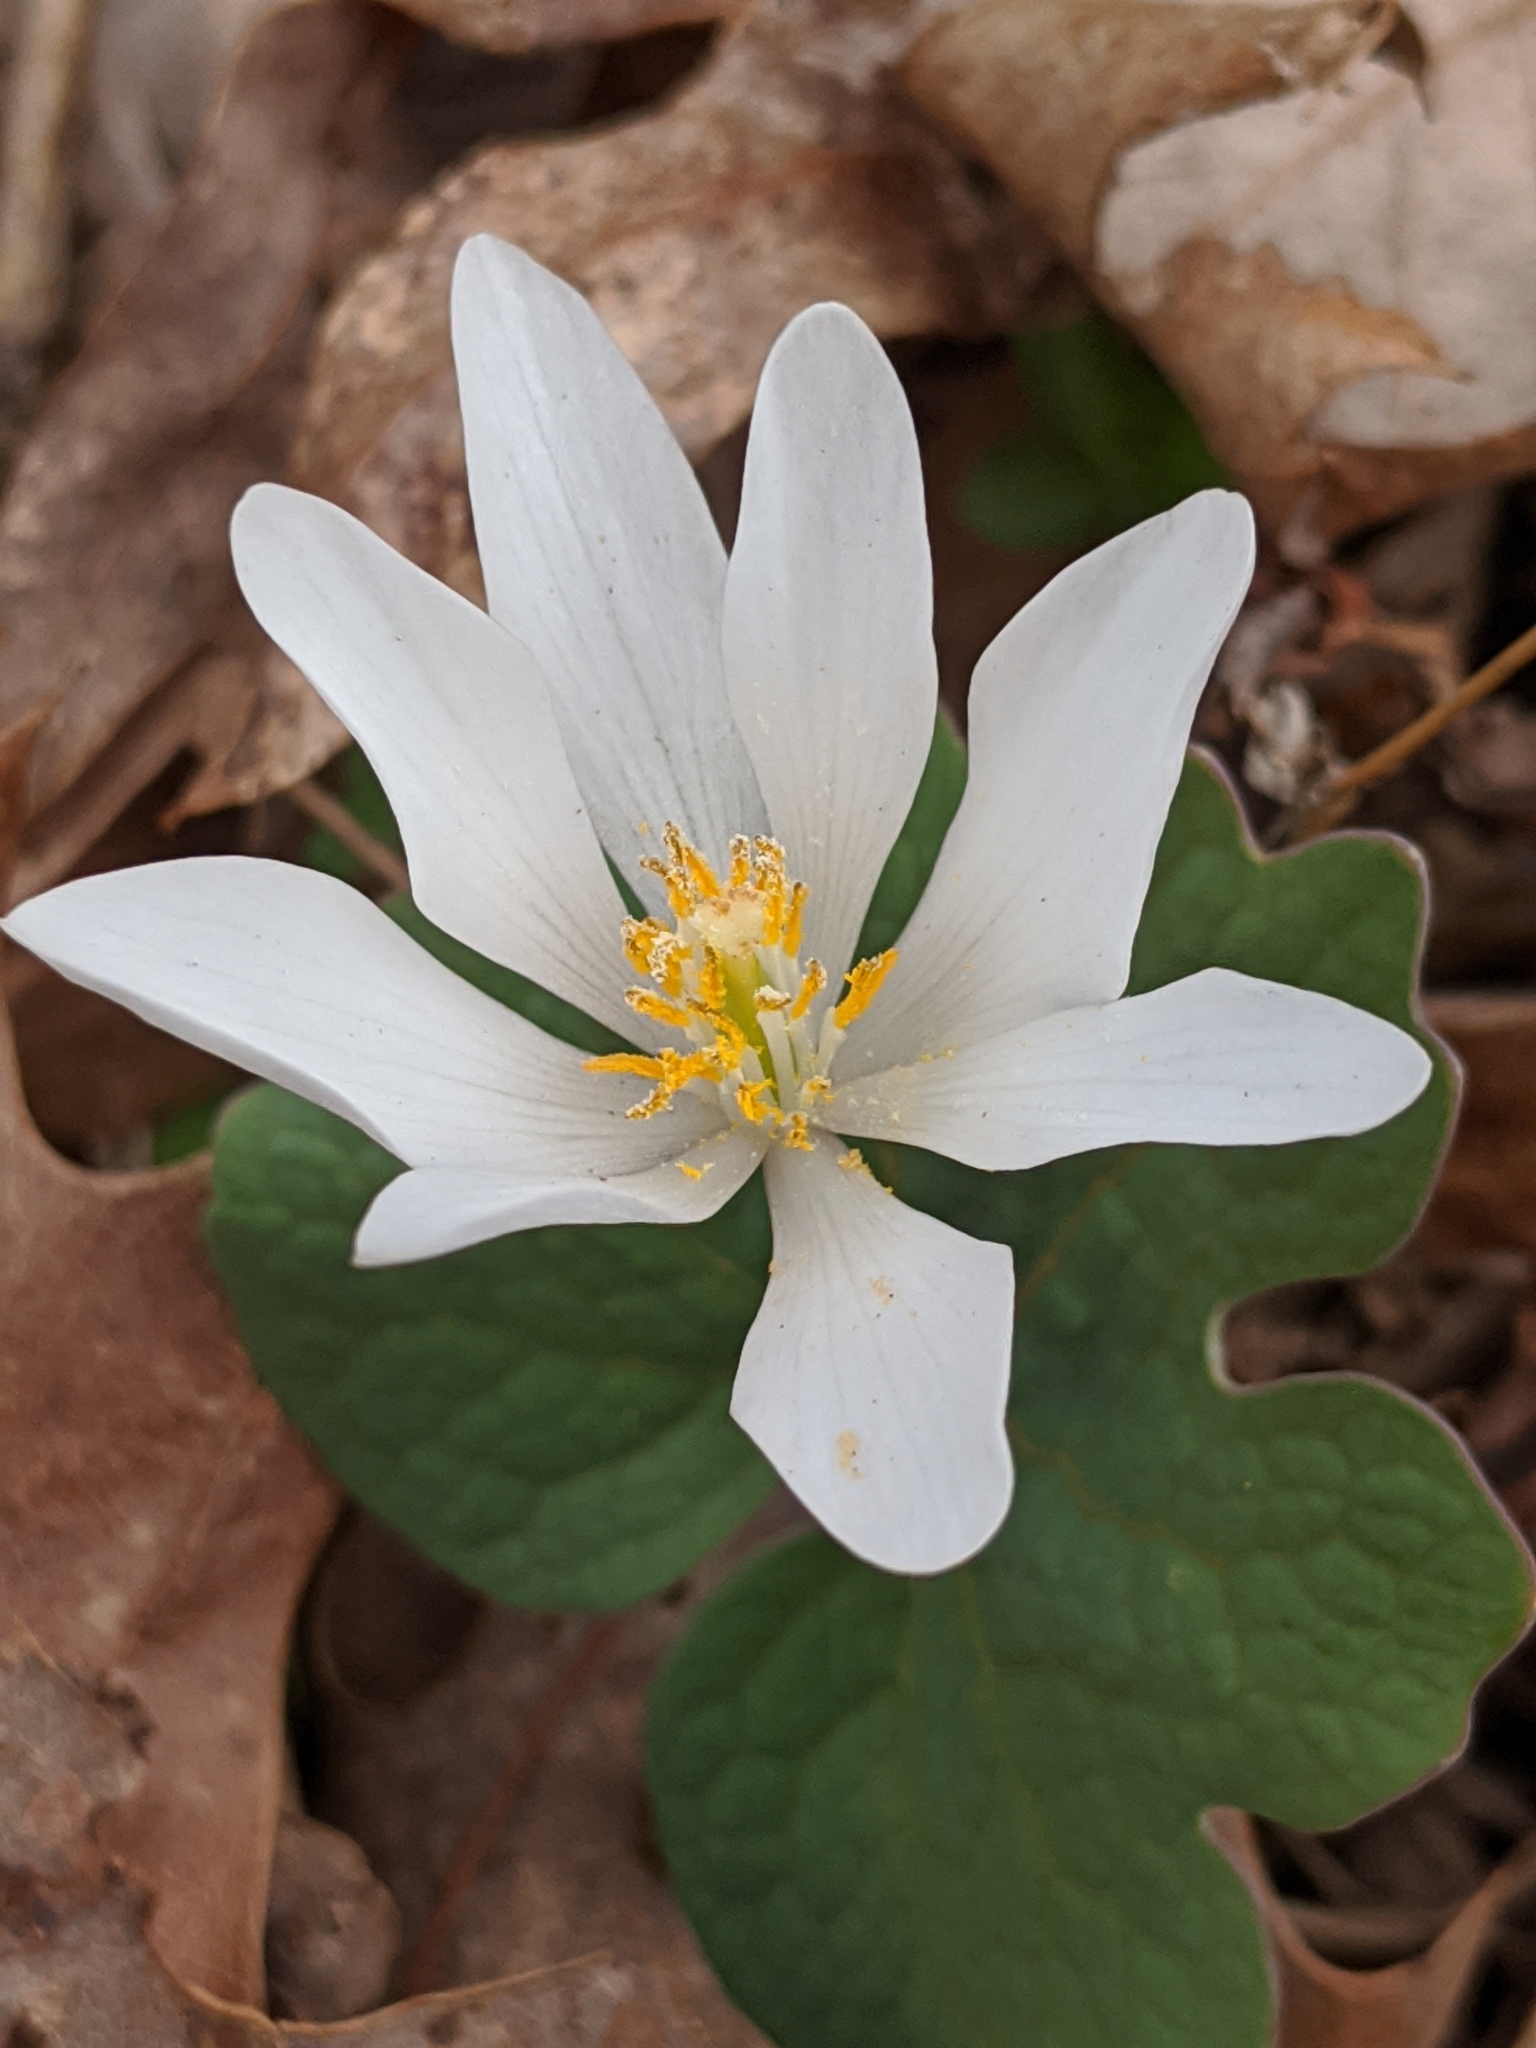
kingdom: Plantae
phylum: Tracheophyta
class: Magnoliopsida
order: Ranunculales
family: Papaveraceae
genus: Sanguinaria
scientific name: Sanguinaria canadensis
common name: Bloodroot
